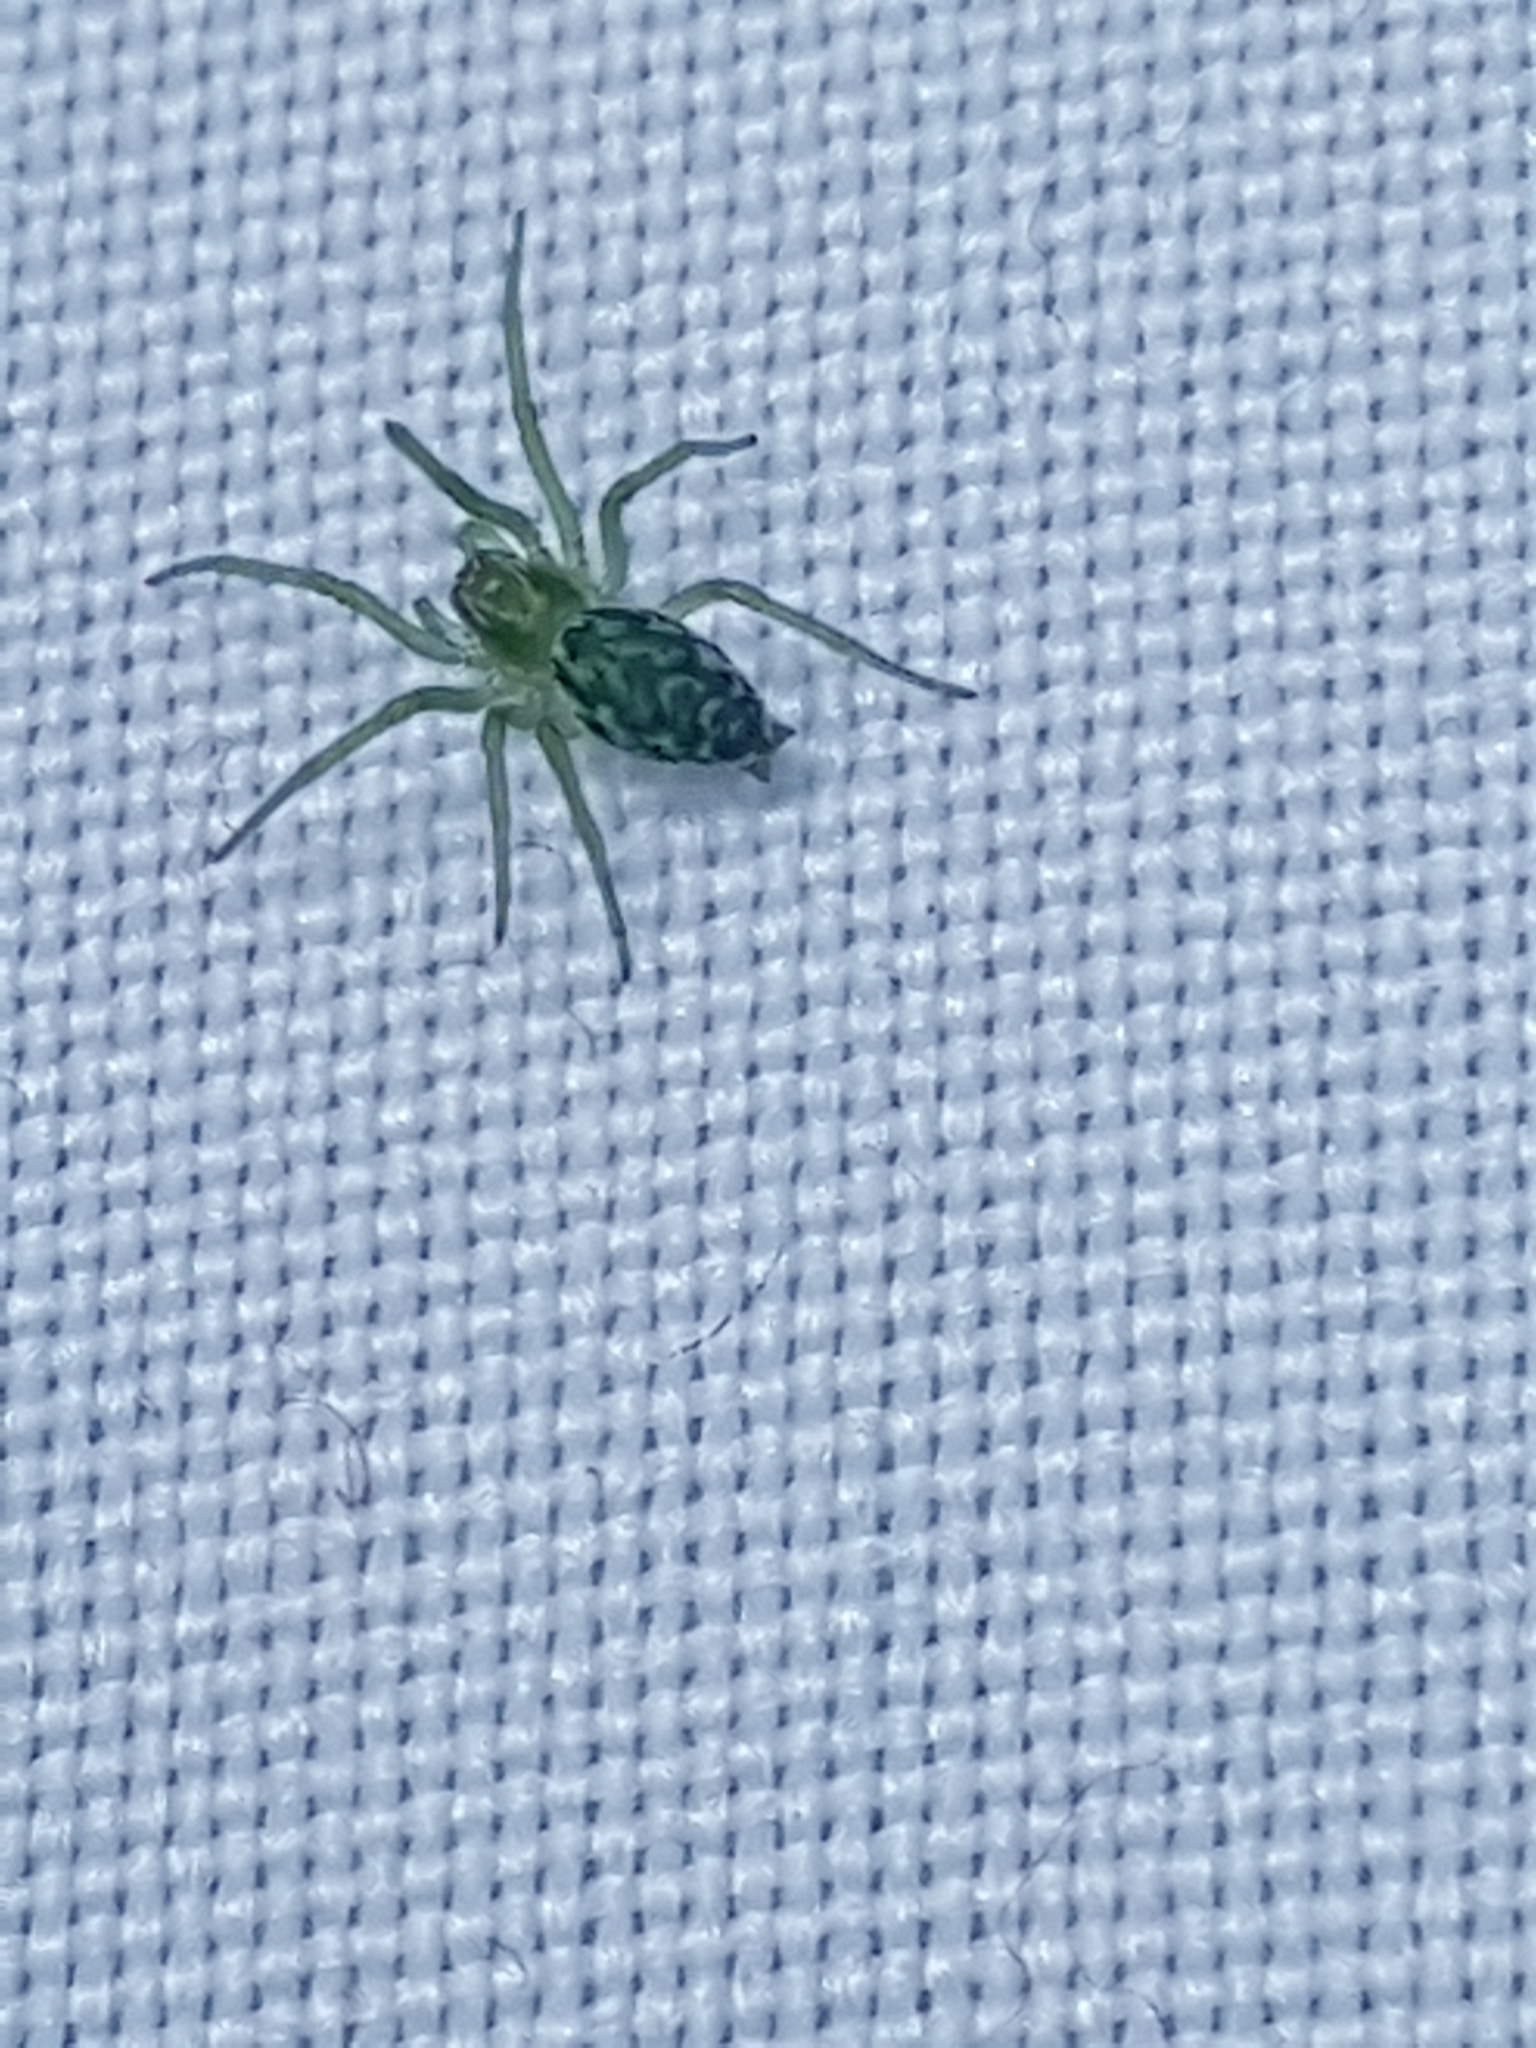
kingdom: Animalia
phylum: Arthropoda
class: Arachnida
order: Araneae
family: Dictynidae
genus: Nigma
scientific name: Nigma walckenaeri
